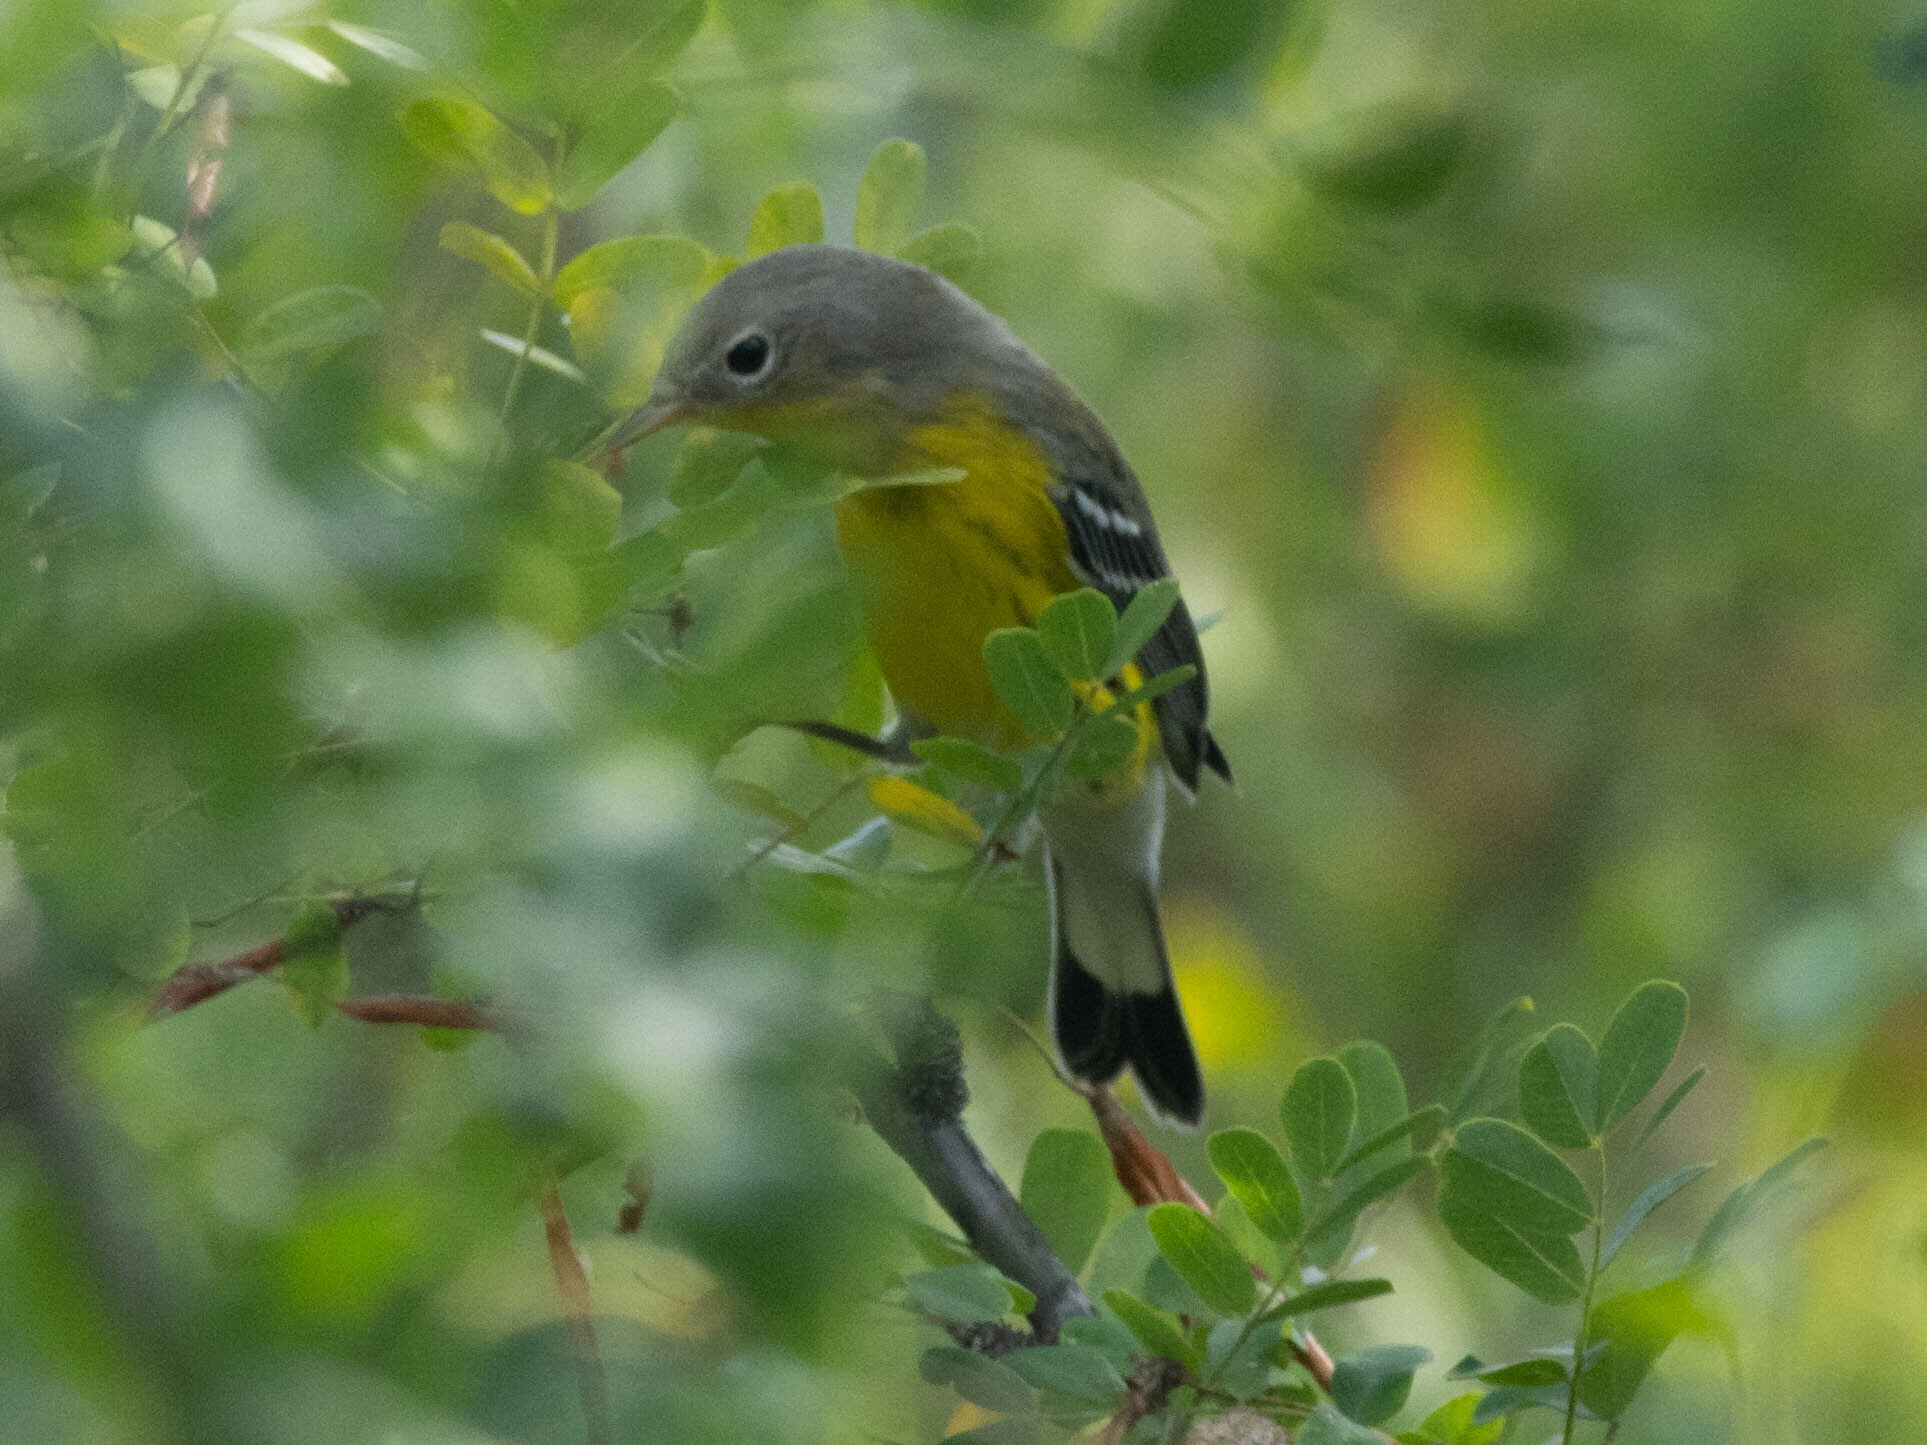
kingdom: Animalia
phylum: Chordata
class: Aves
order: Passeriformes
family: Parulidae
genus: Setophaga
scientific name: Setophaga magnolia
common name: Magnolia warbler
